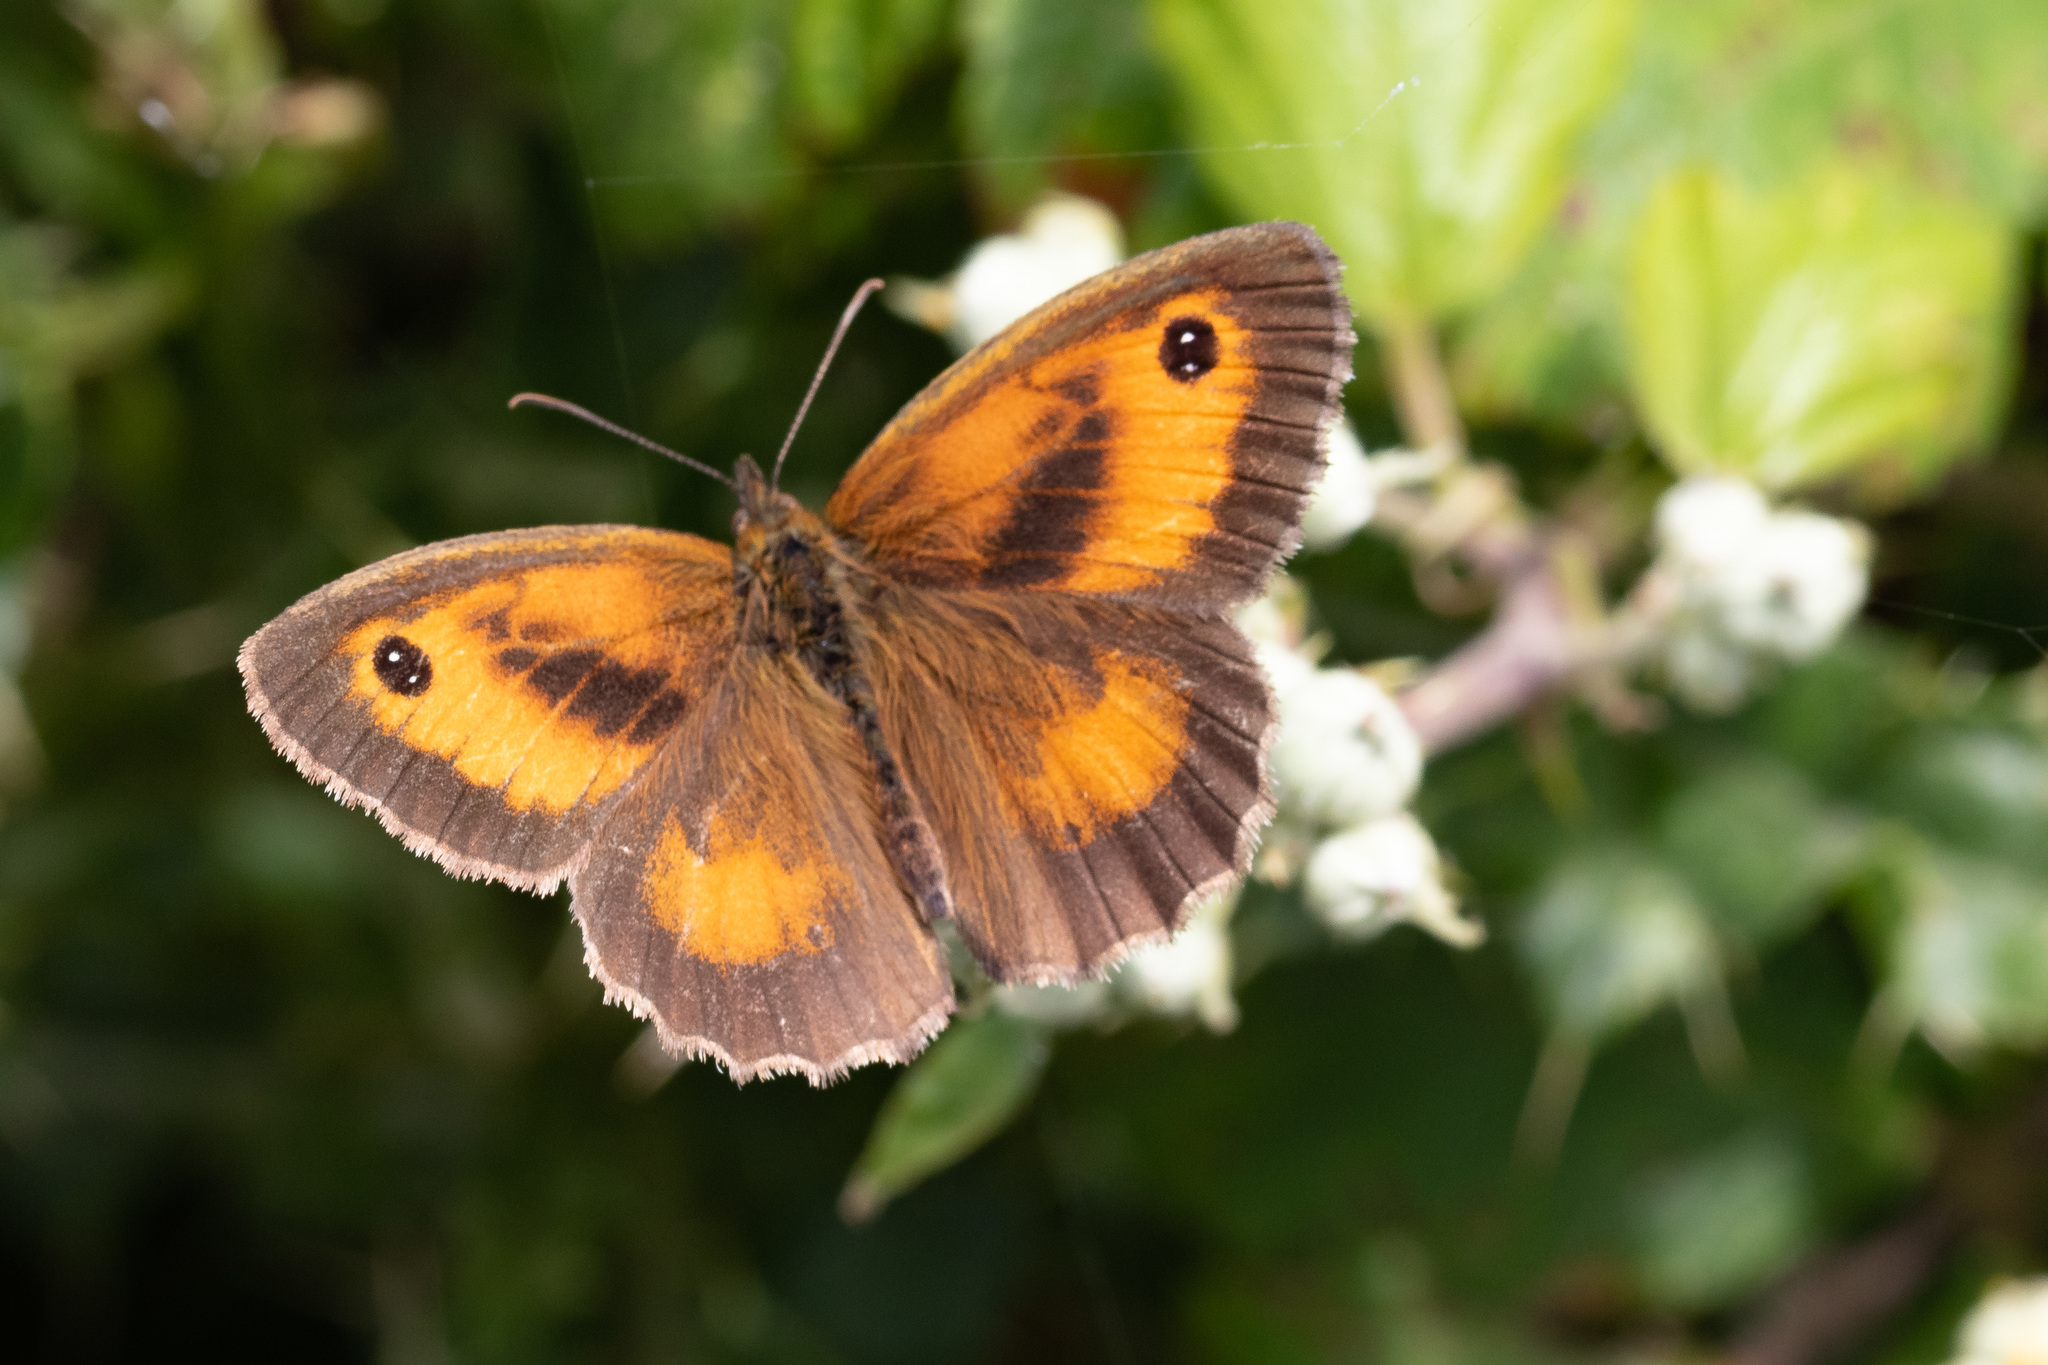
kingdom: Animalia
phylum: Arthropoda
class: Insecta
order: Lepidoptera
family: Nymphalidae
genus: Pyronia
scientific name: Pyronia tithonus
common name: Gatekeeper
